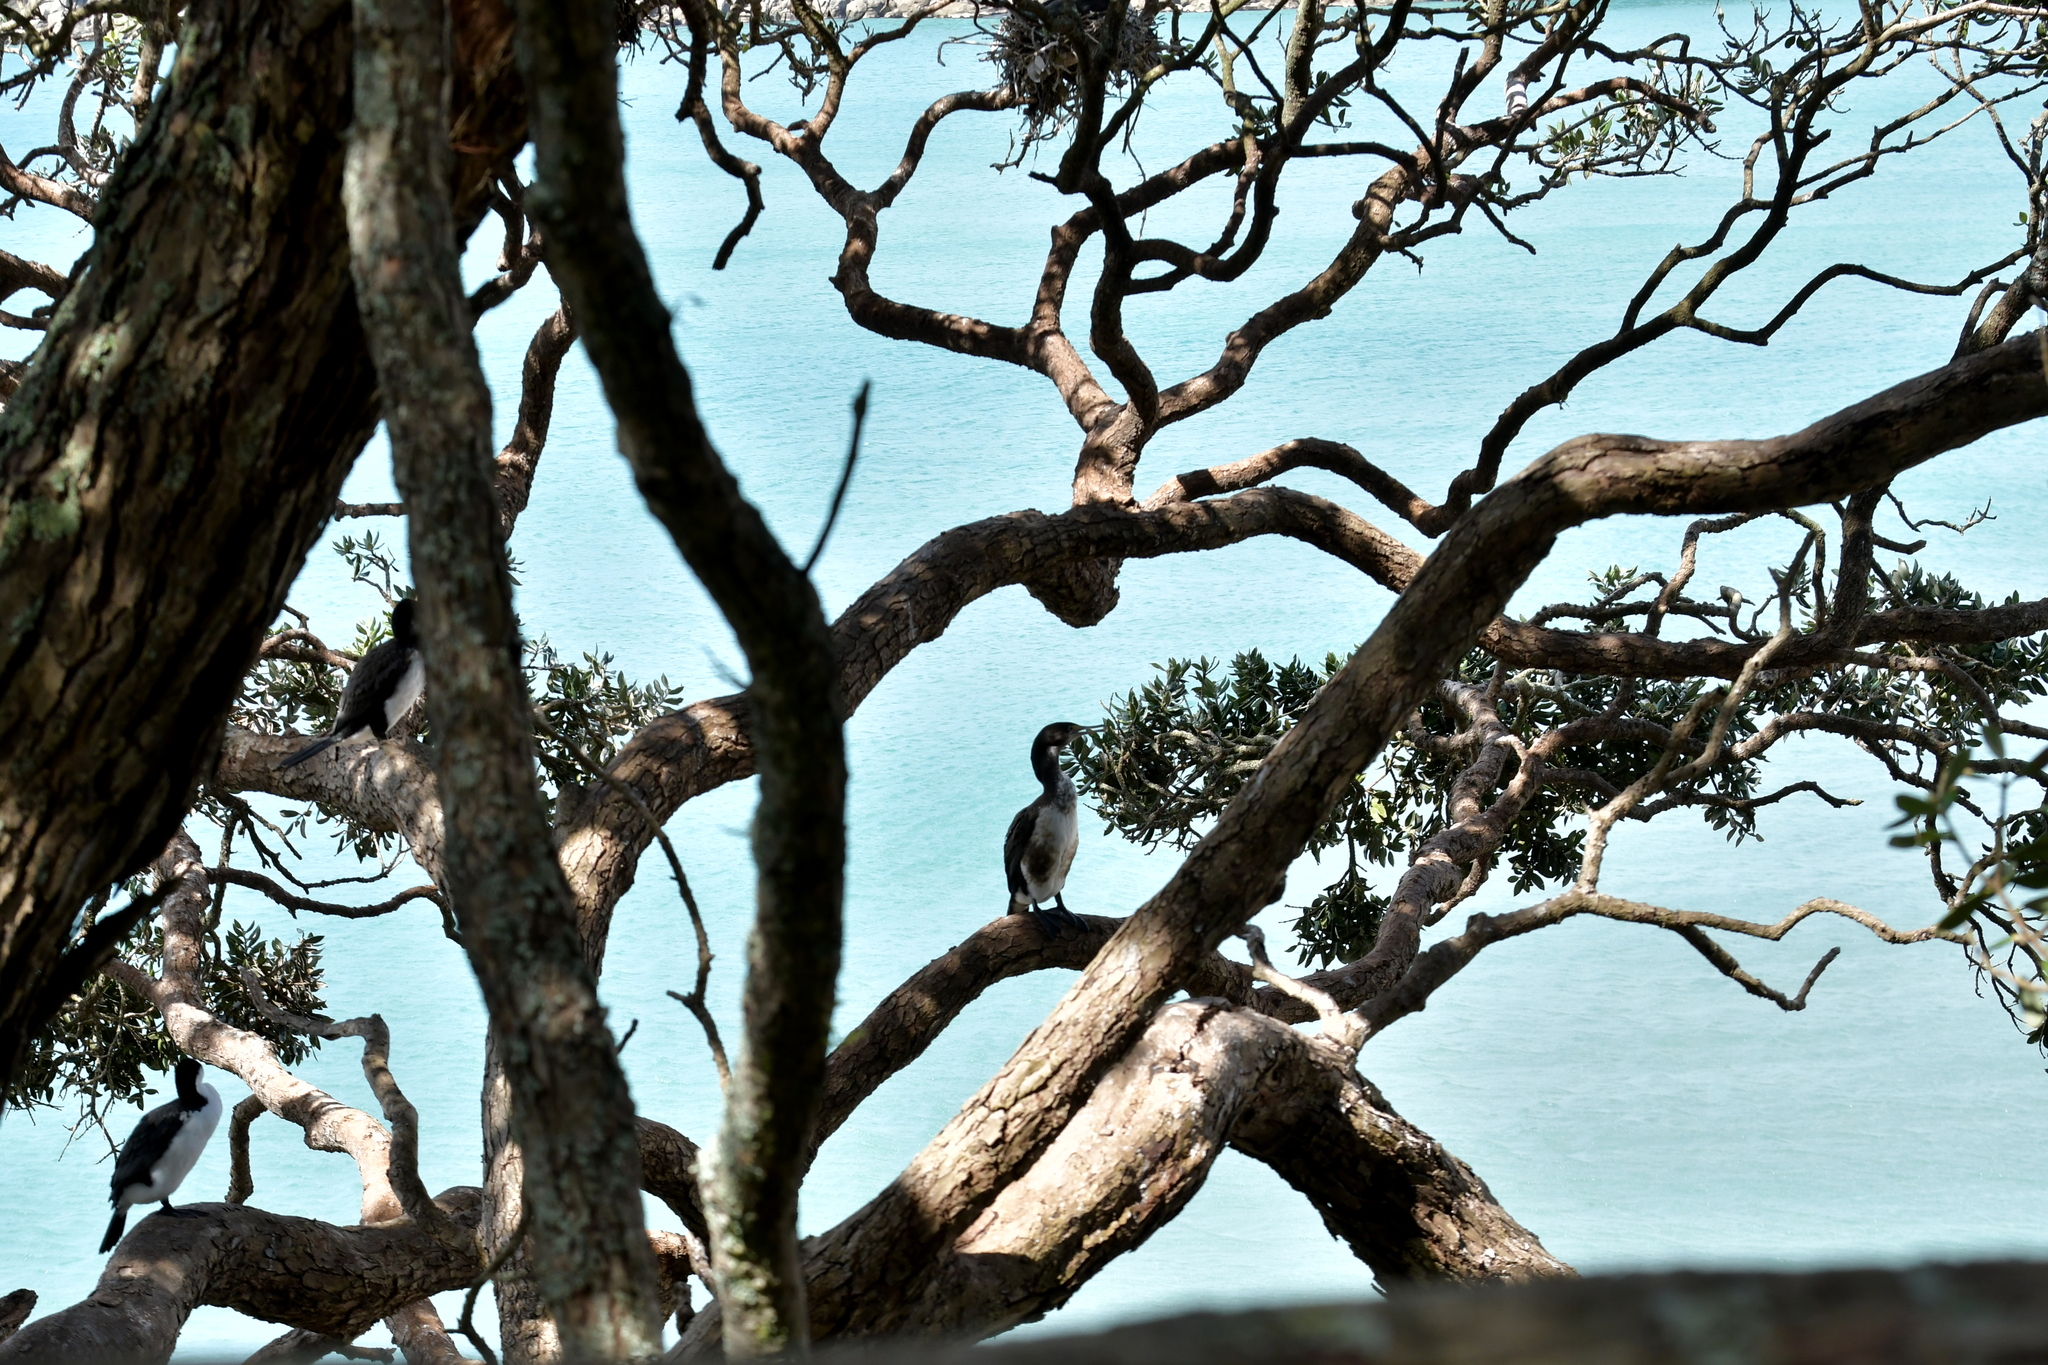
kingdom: Animalia
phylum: Chordata
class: Aves
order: Suliformes
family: Phalacrocoracidae
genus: Phalacrocorax
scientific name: Phalacrocorax varius
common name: Pied cormorant
